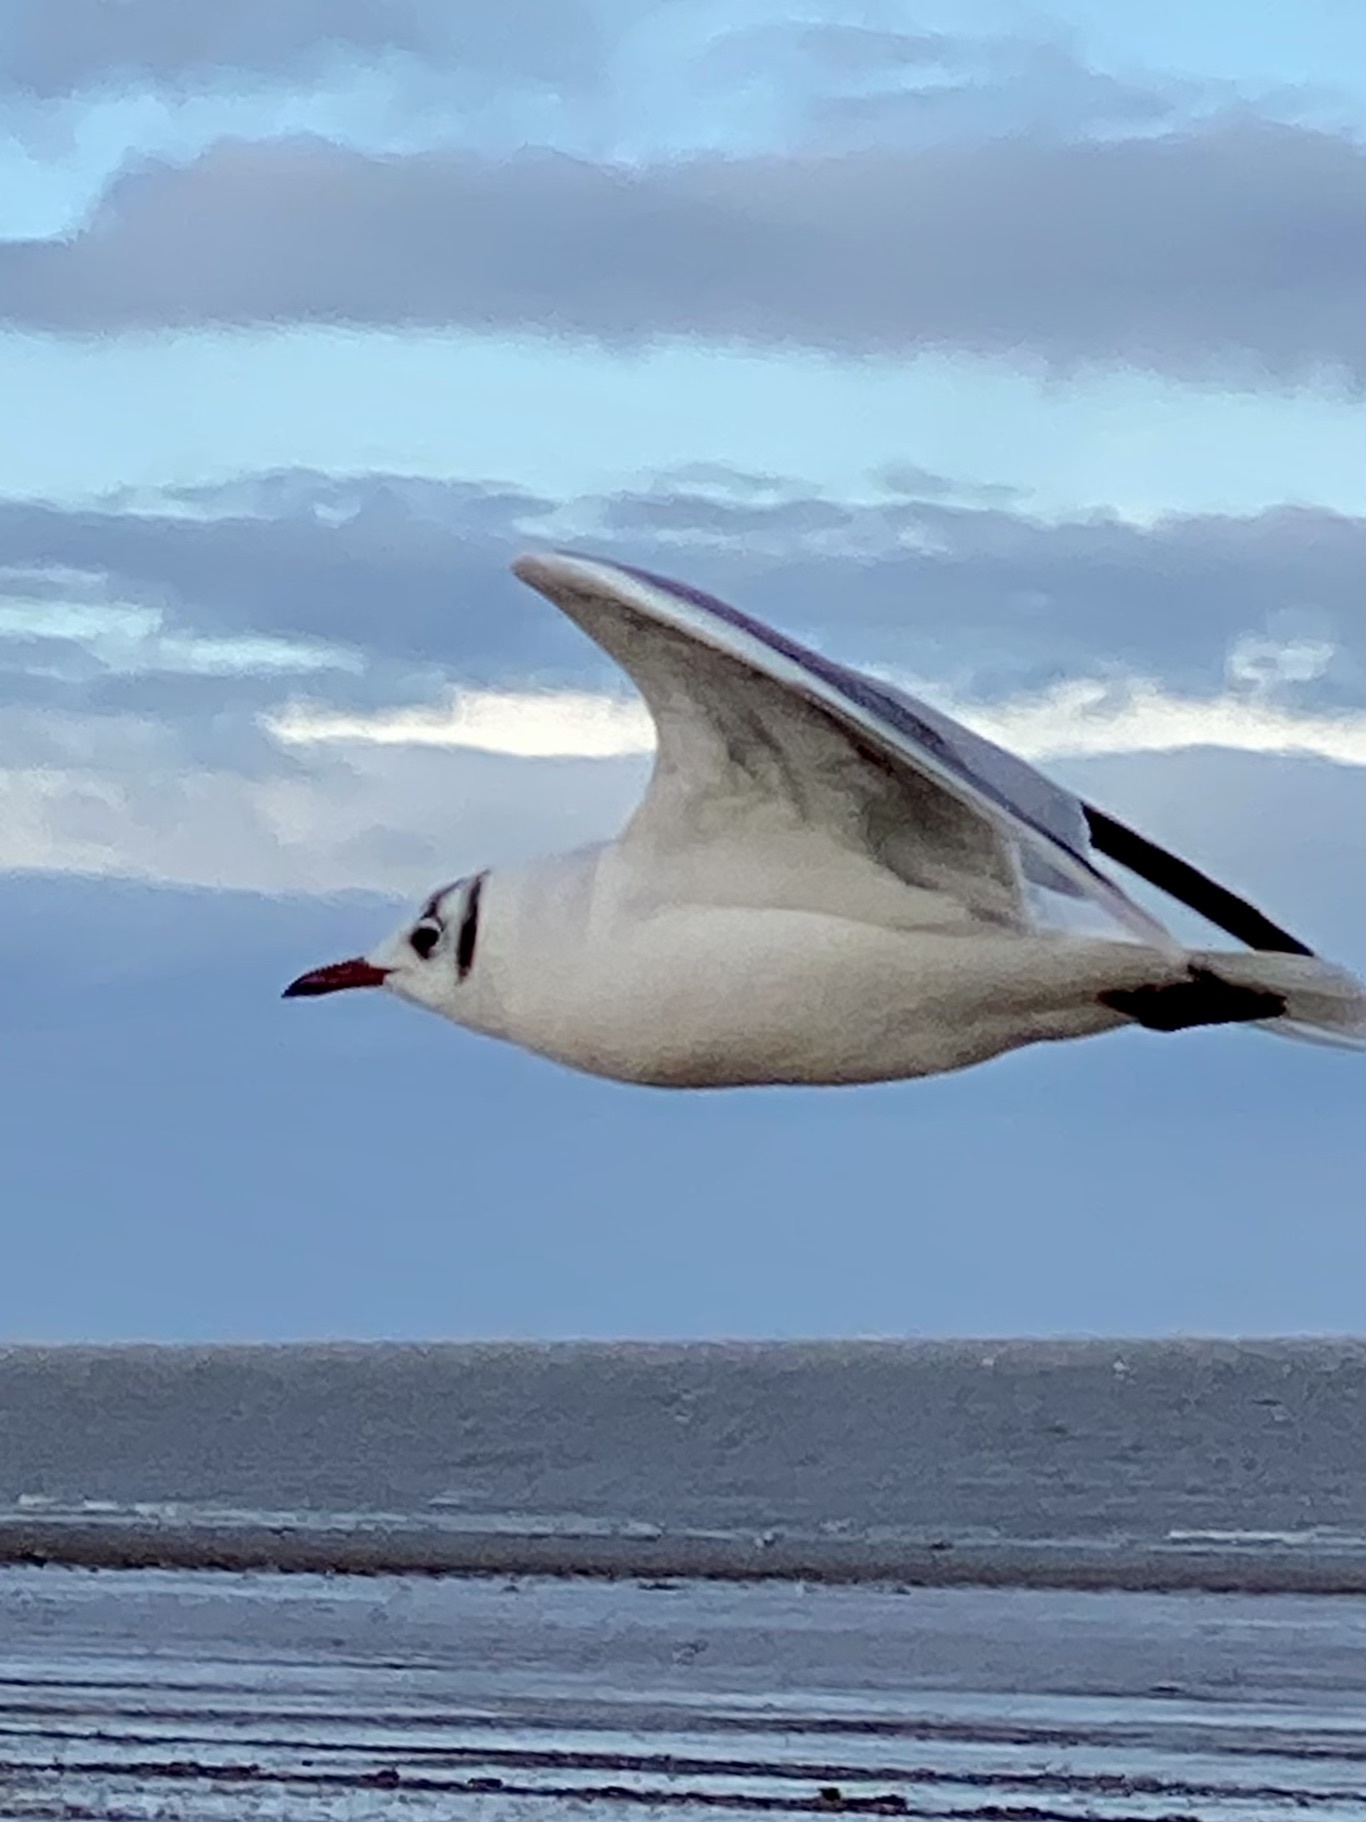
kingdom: Animalia
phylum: Chordata
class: Aves
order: Charadriiformes
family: Laridae
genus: Chroicocephalus
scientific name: Chroicocephalus ridibundus
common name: Black-headed gull
